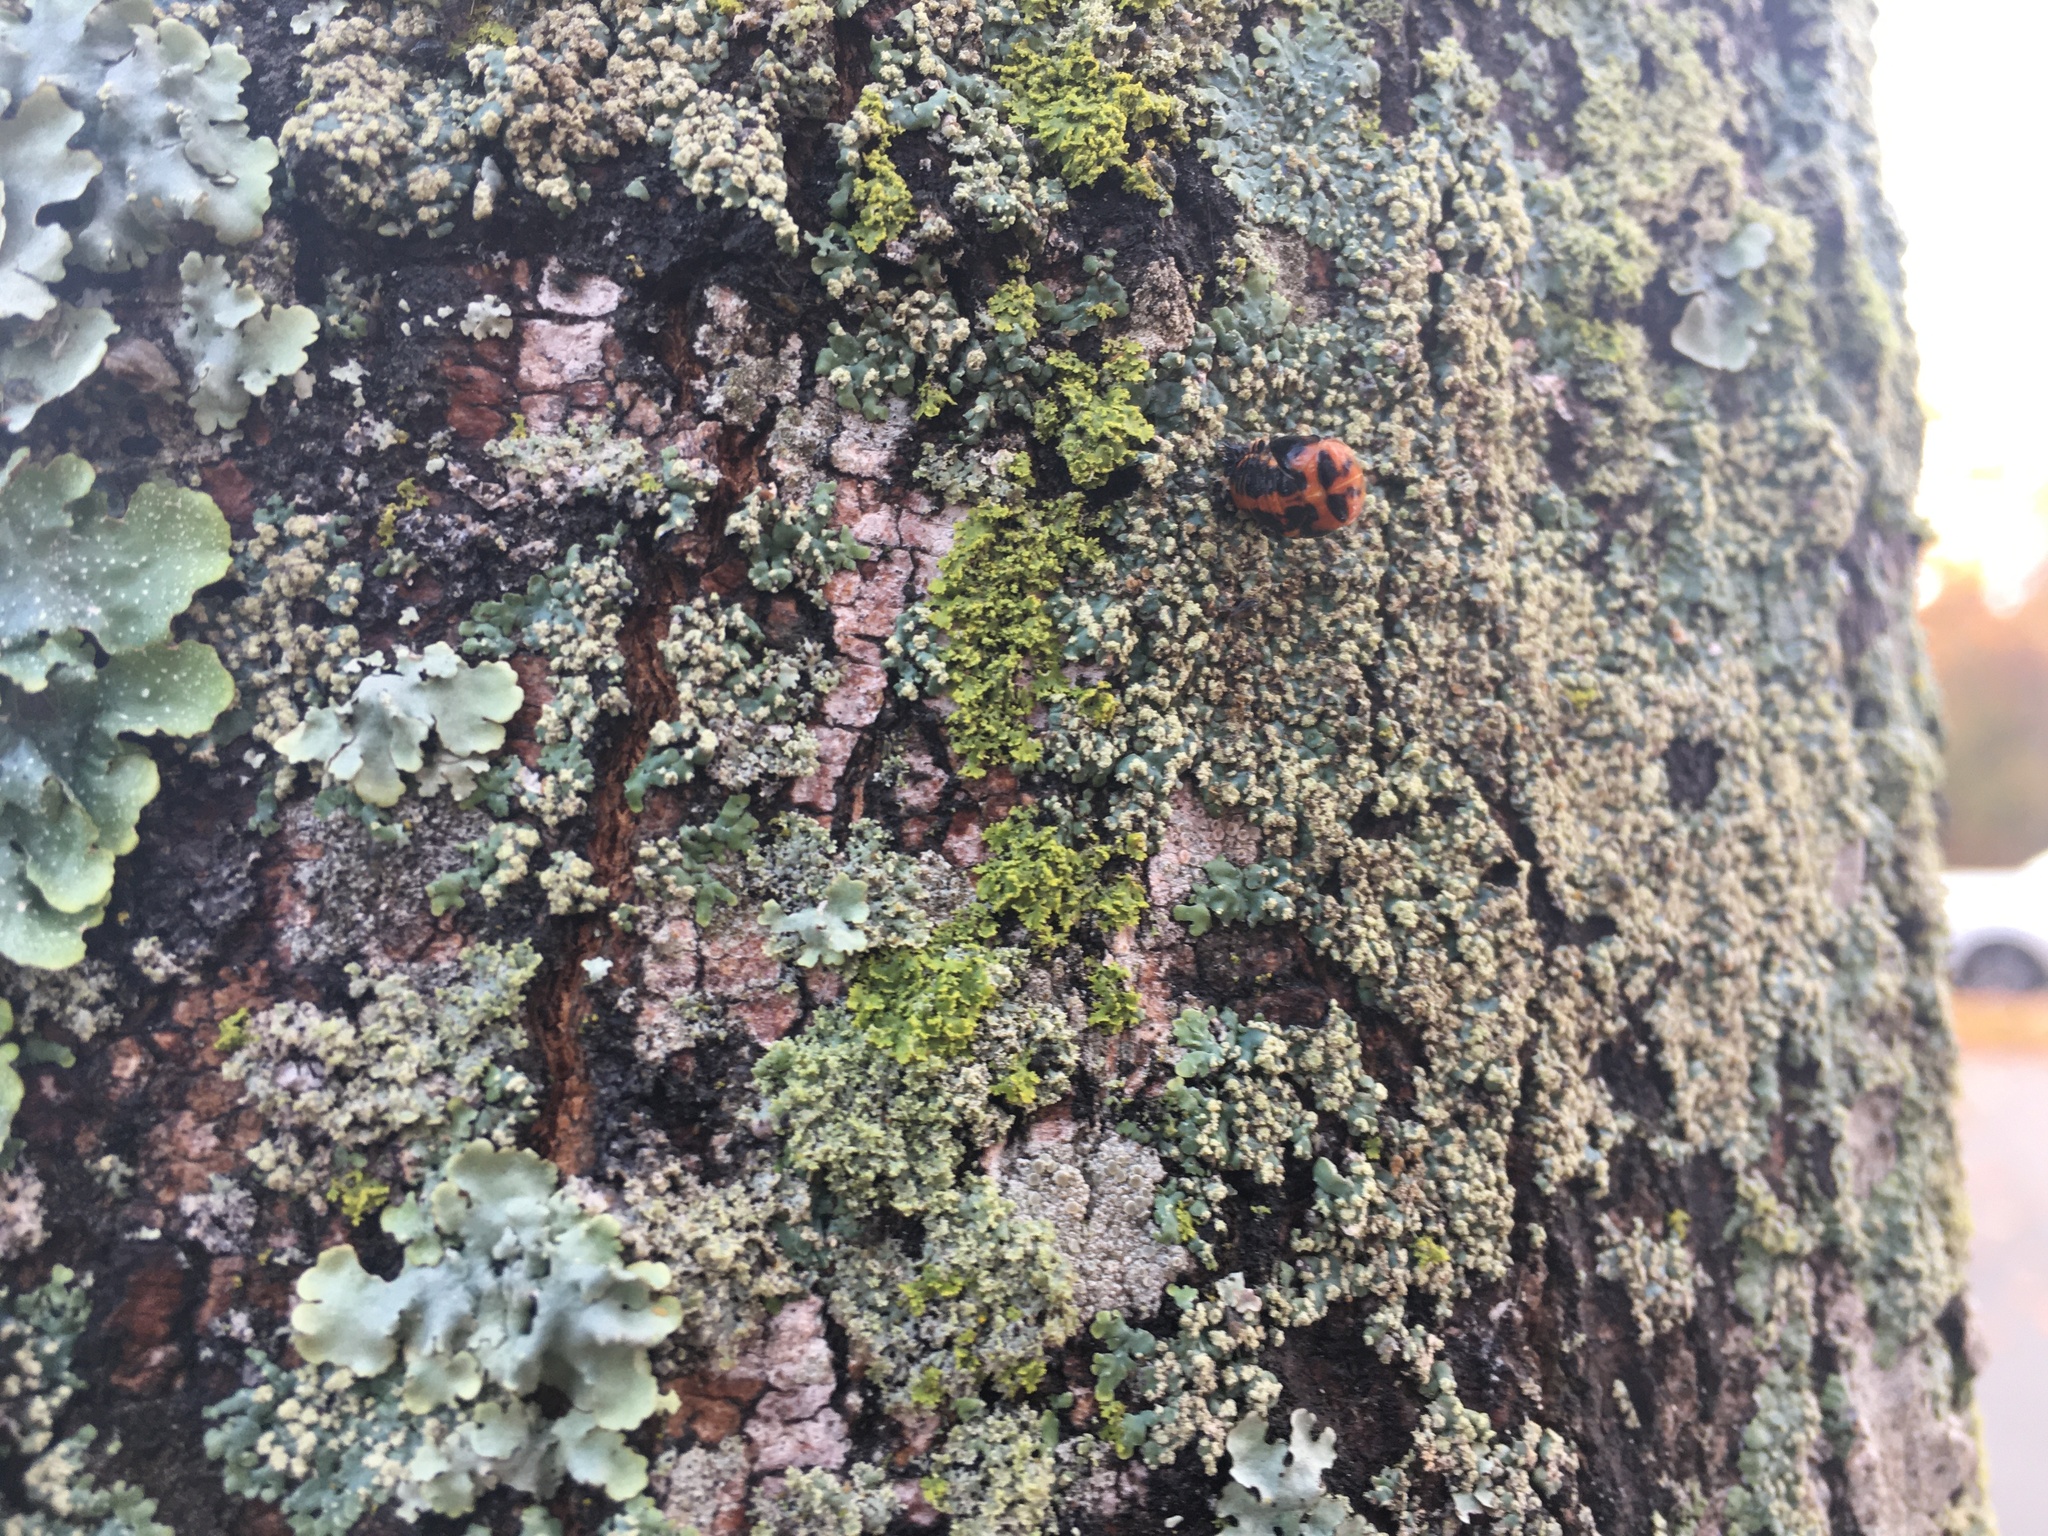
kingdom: Animalia
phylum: Arthropoda
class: Insecta
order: Coleoptera
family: Coccinellidae
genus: Harmonia
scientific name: Harmonia axyridis
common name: Harlequin ladybird
